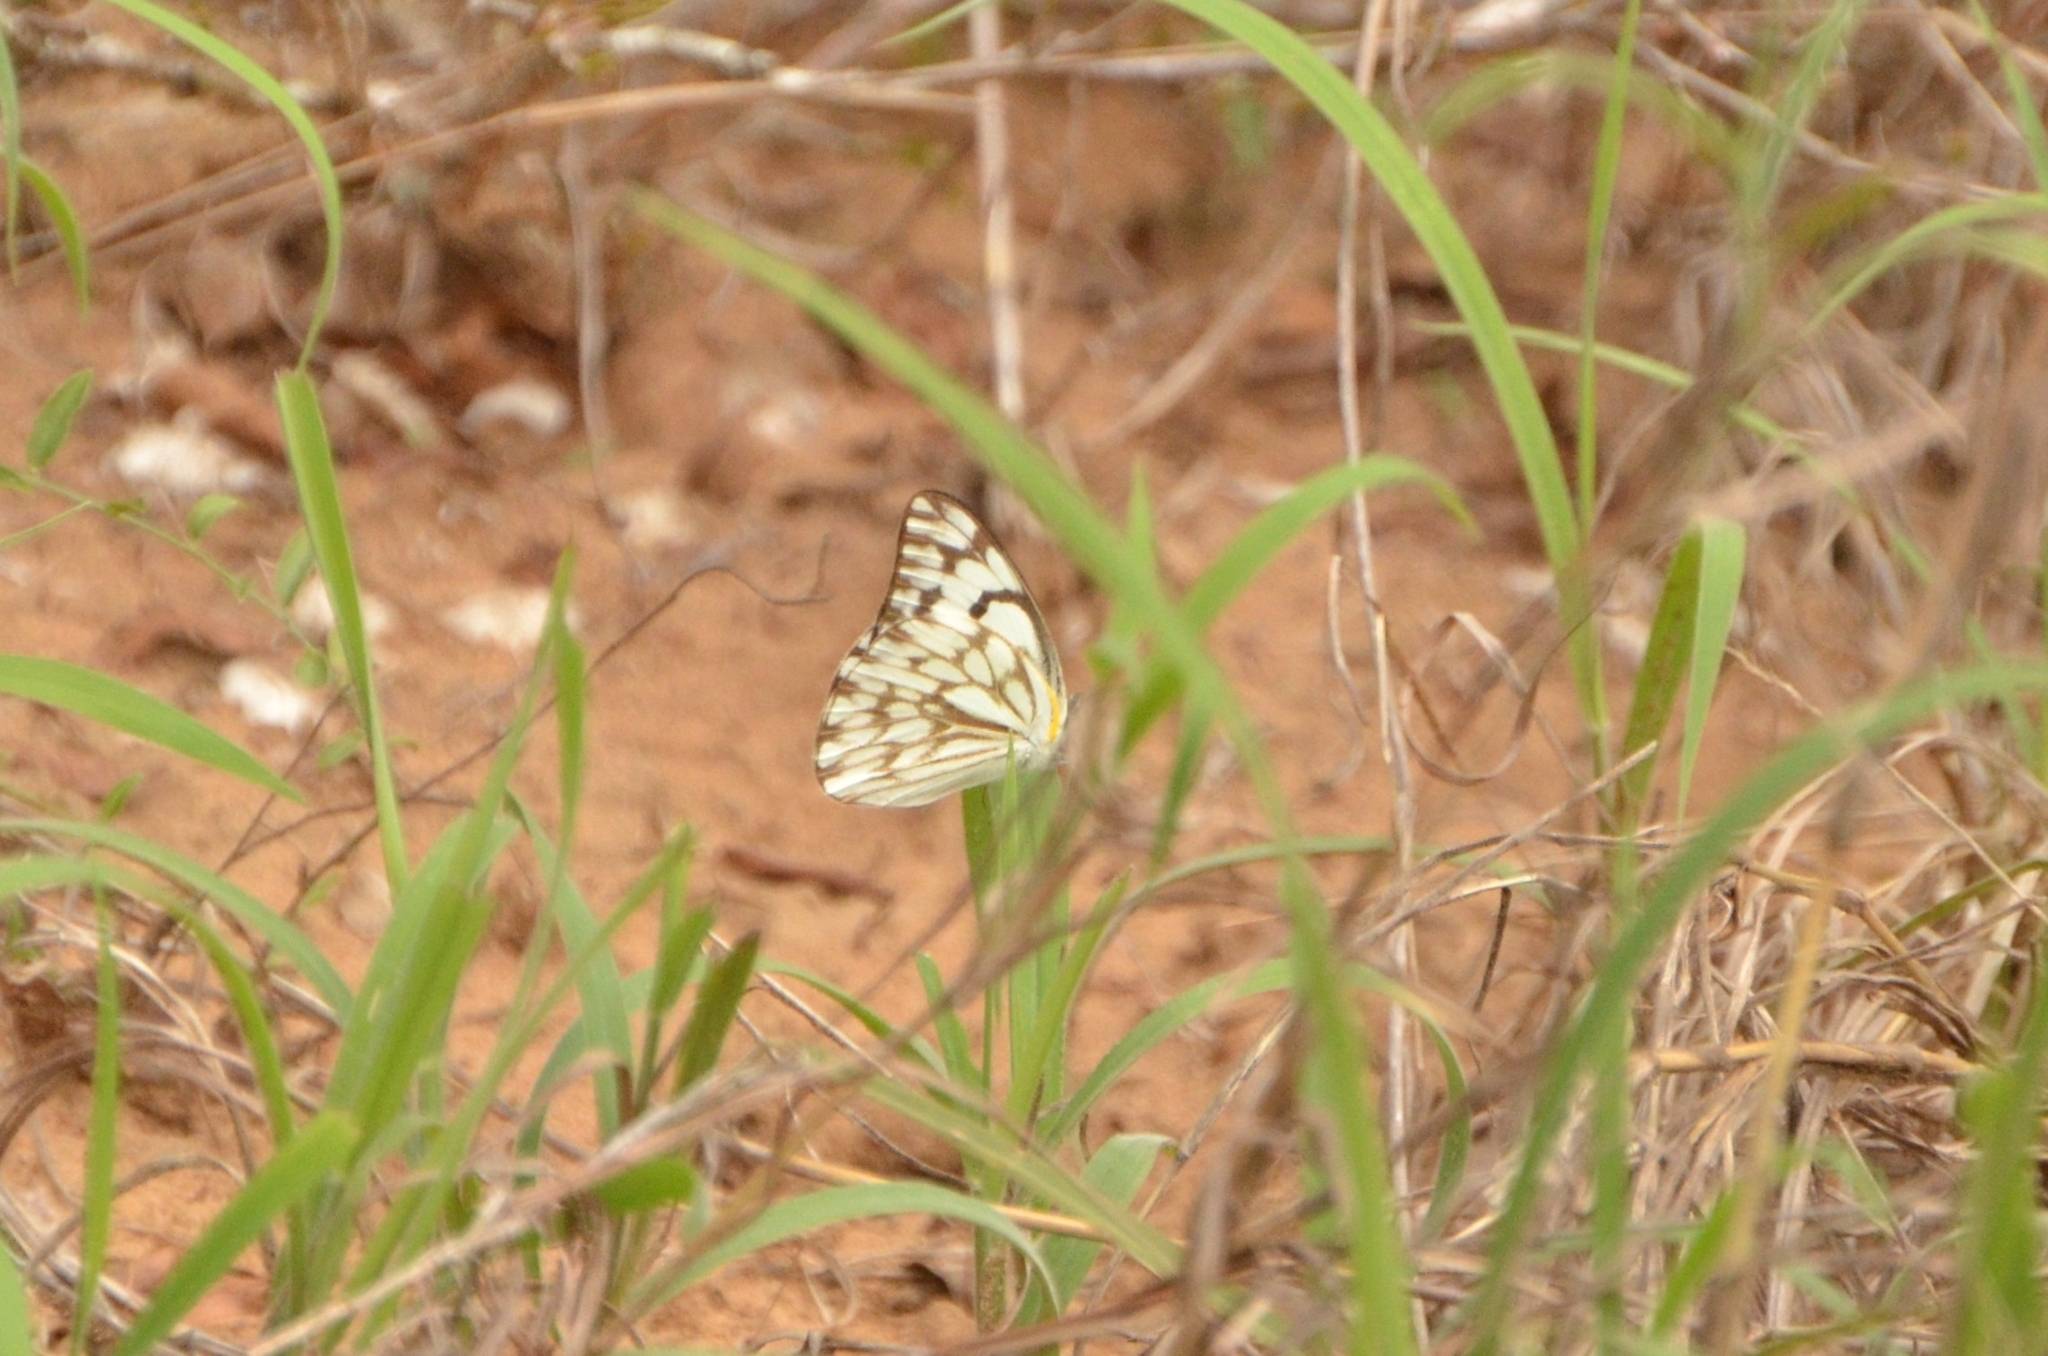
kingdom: Animalia
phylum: Arthropoda
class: Insecta
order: Lepidoptera
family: Pieridae
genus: Belenois
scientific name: Belenois gidica
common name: Pointed caper white
